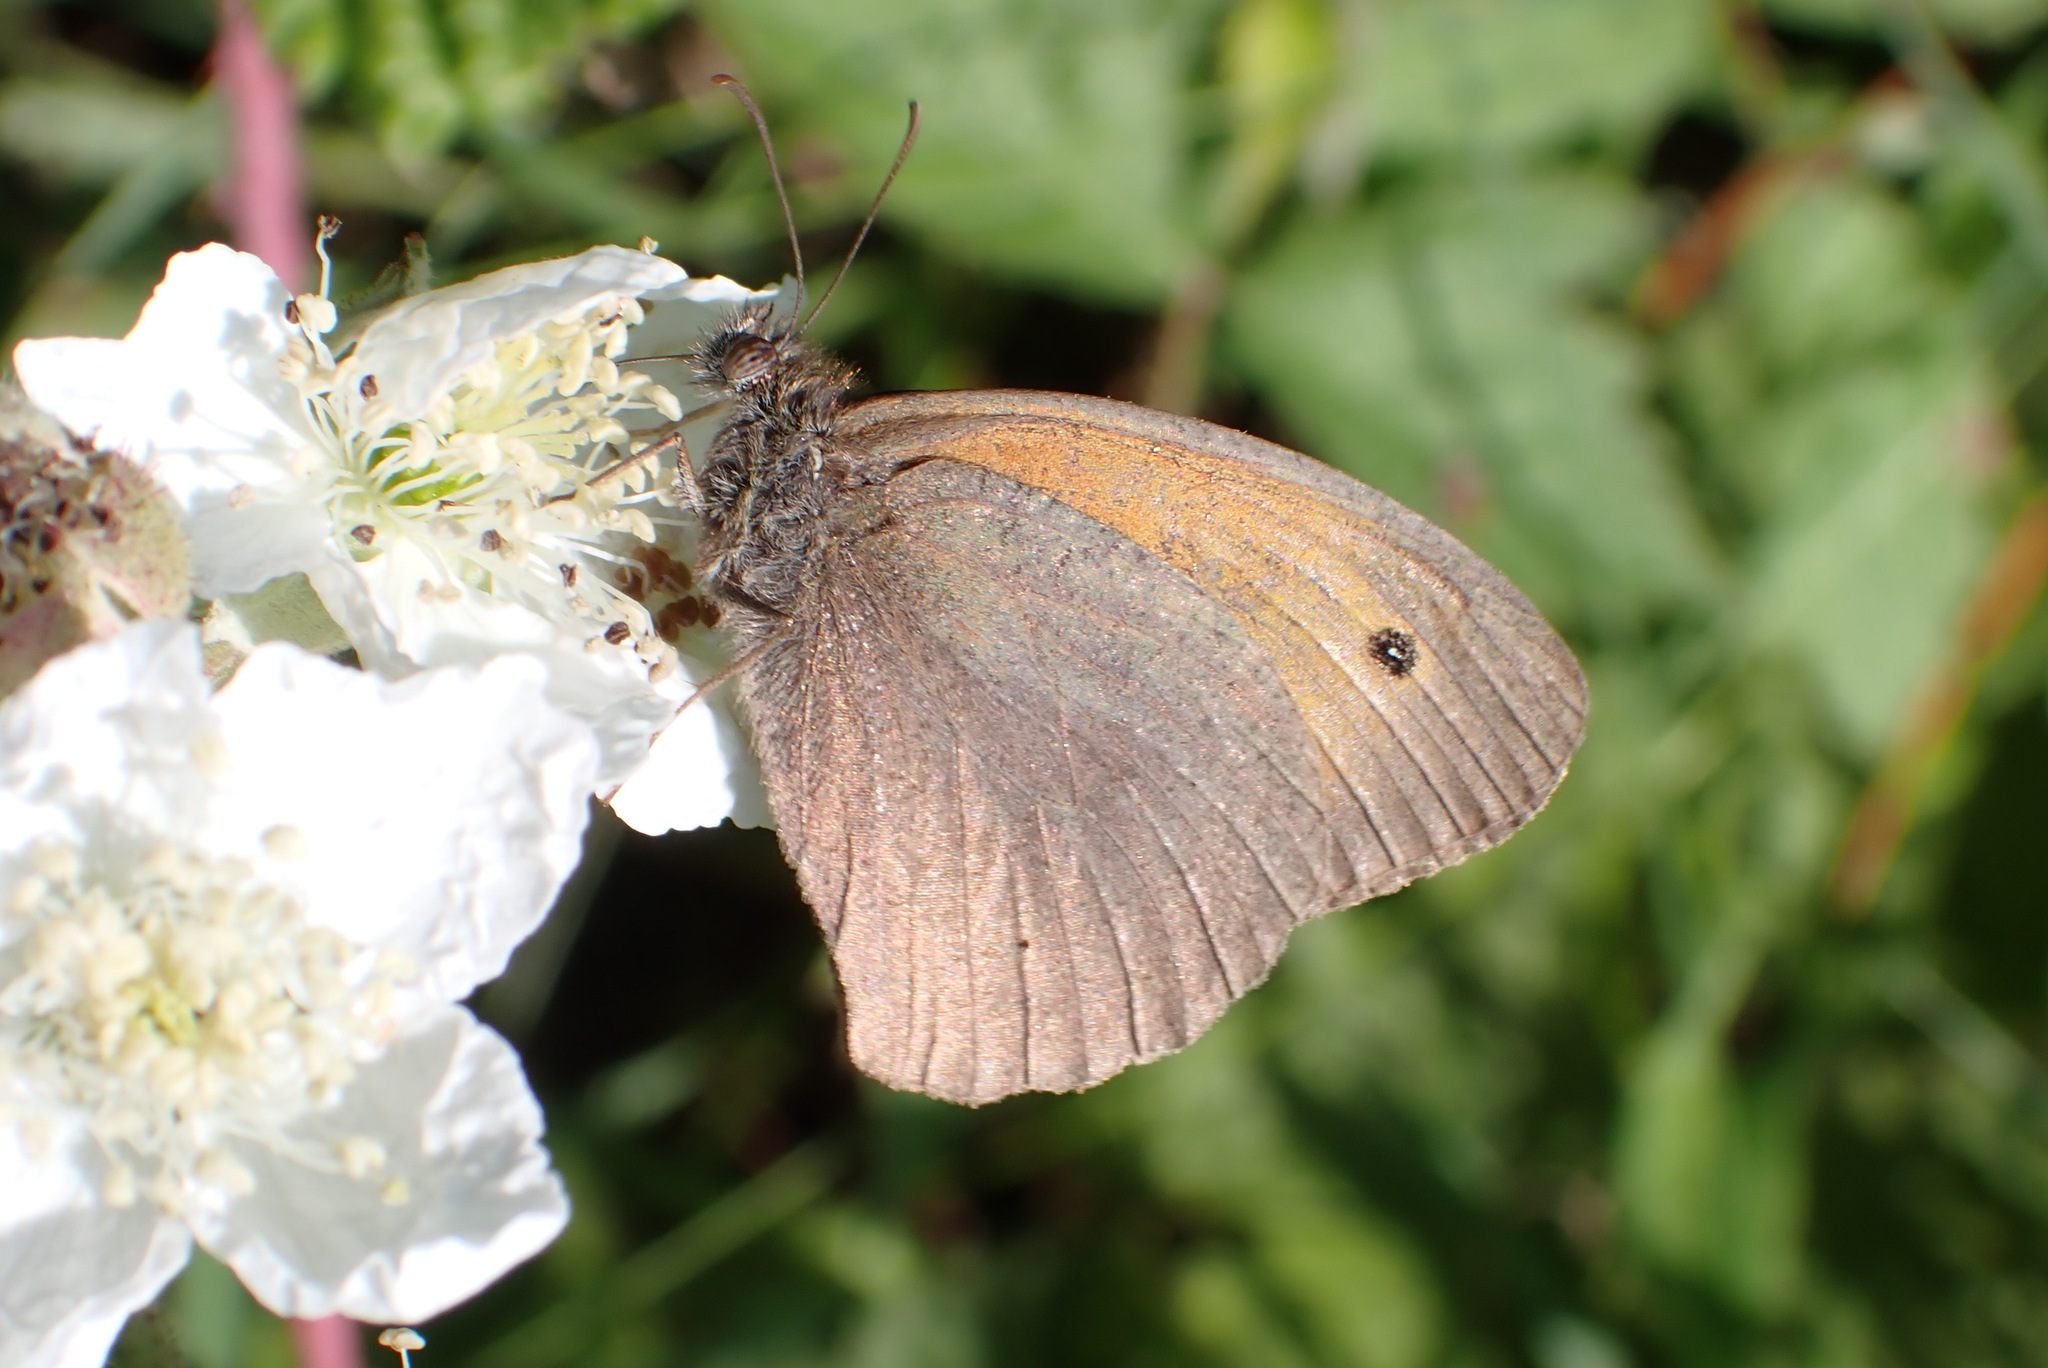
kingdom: Animalia
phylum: Arthropoda
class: Insecta
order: Lepidoptera
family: Nymphalidae
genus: Maniola
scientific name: Maniola jurtina
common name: Meadow brown
